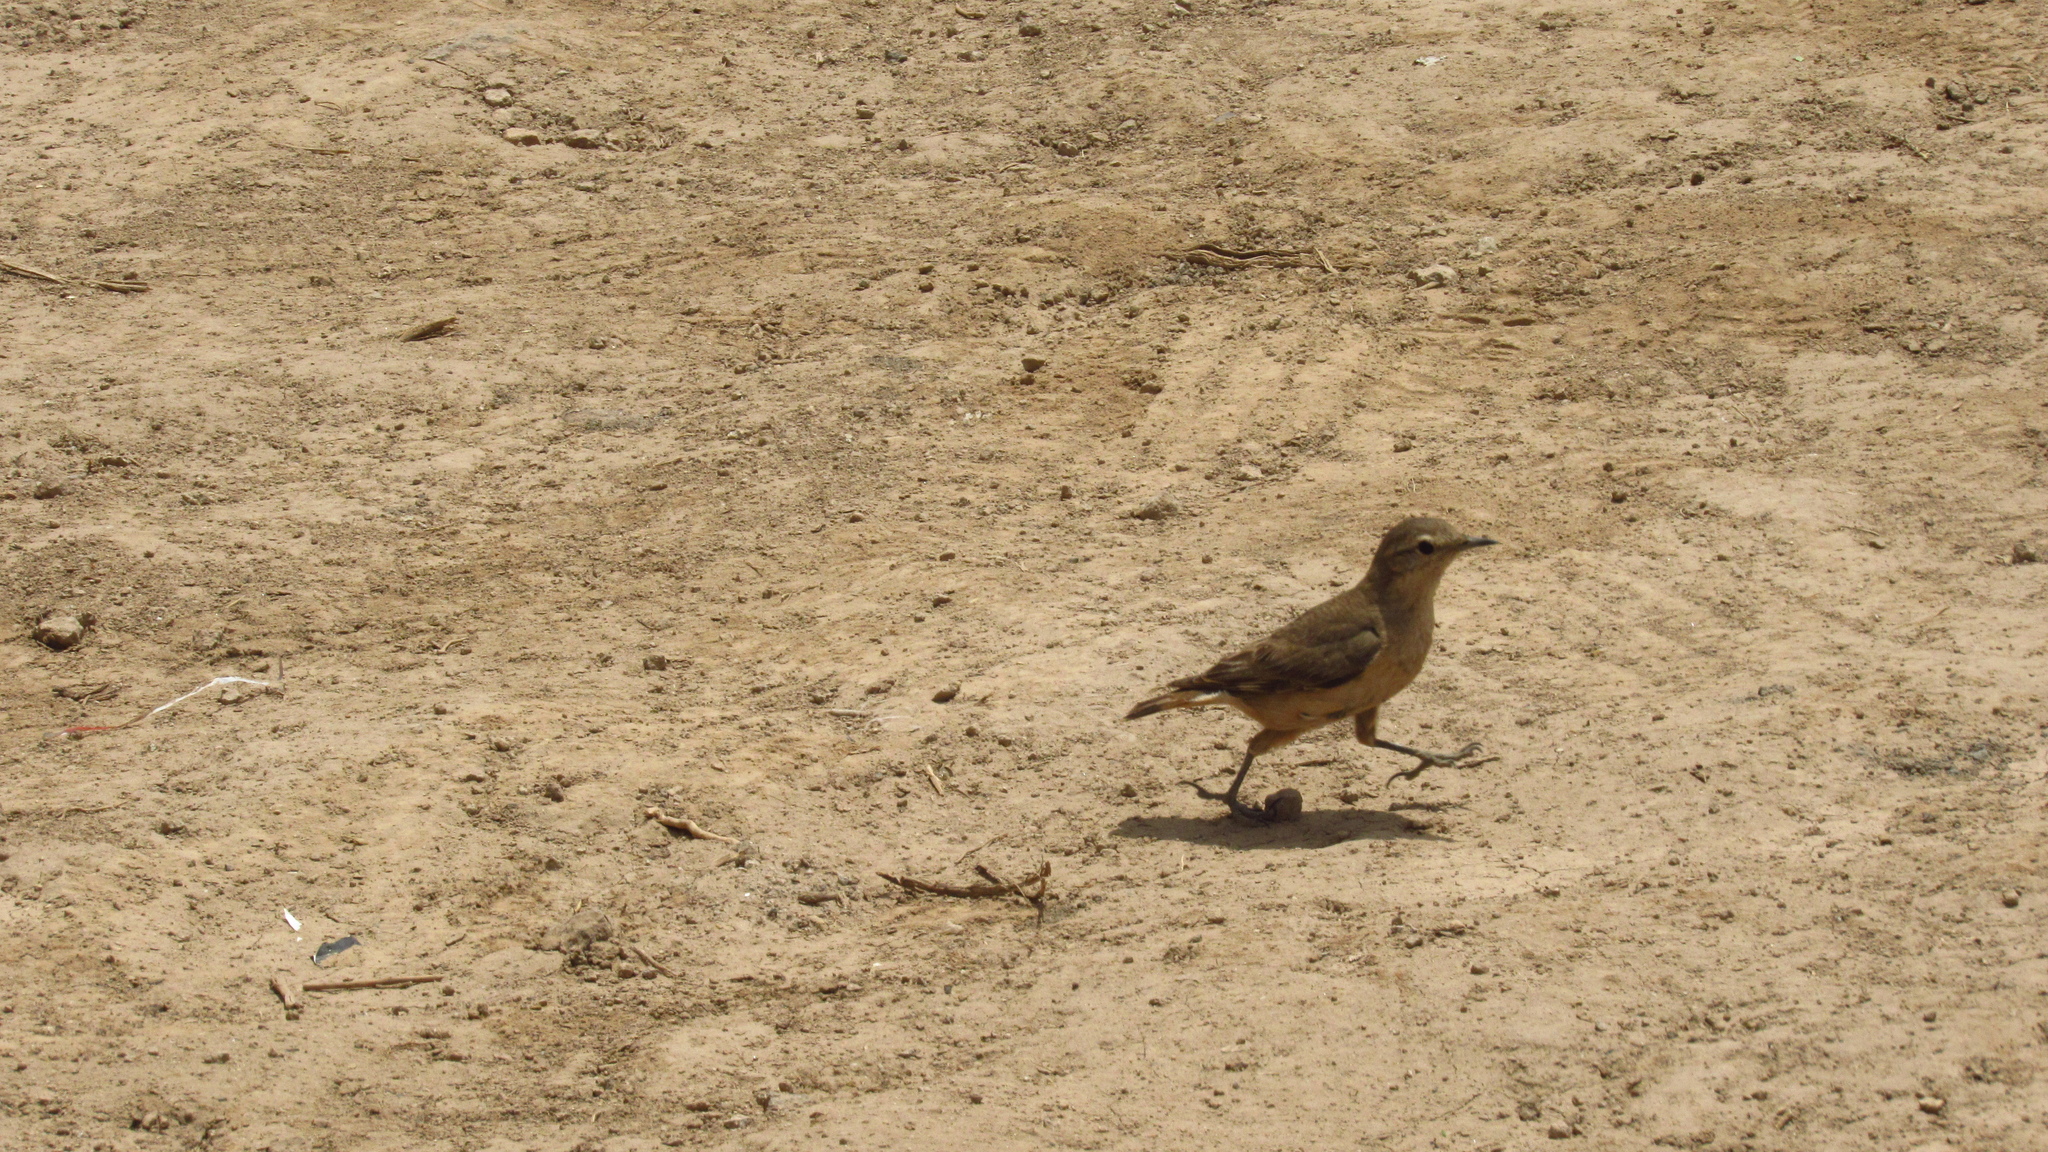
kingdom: Animalia
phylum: Chordata
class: Aves
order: Passeriformes
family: Furnariidae
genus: Geositta
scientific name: Geositta rufipennis
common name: Rufous-banded miner
